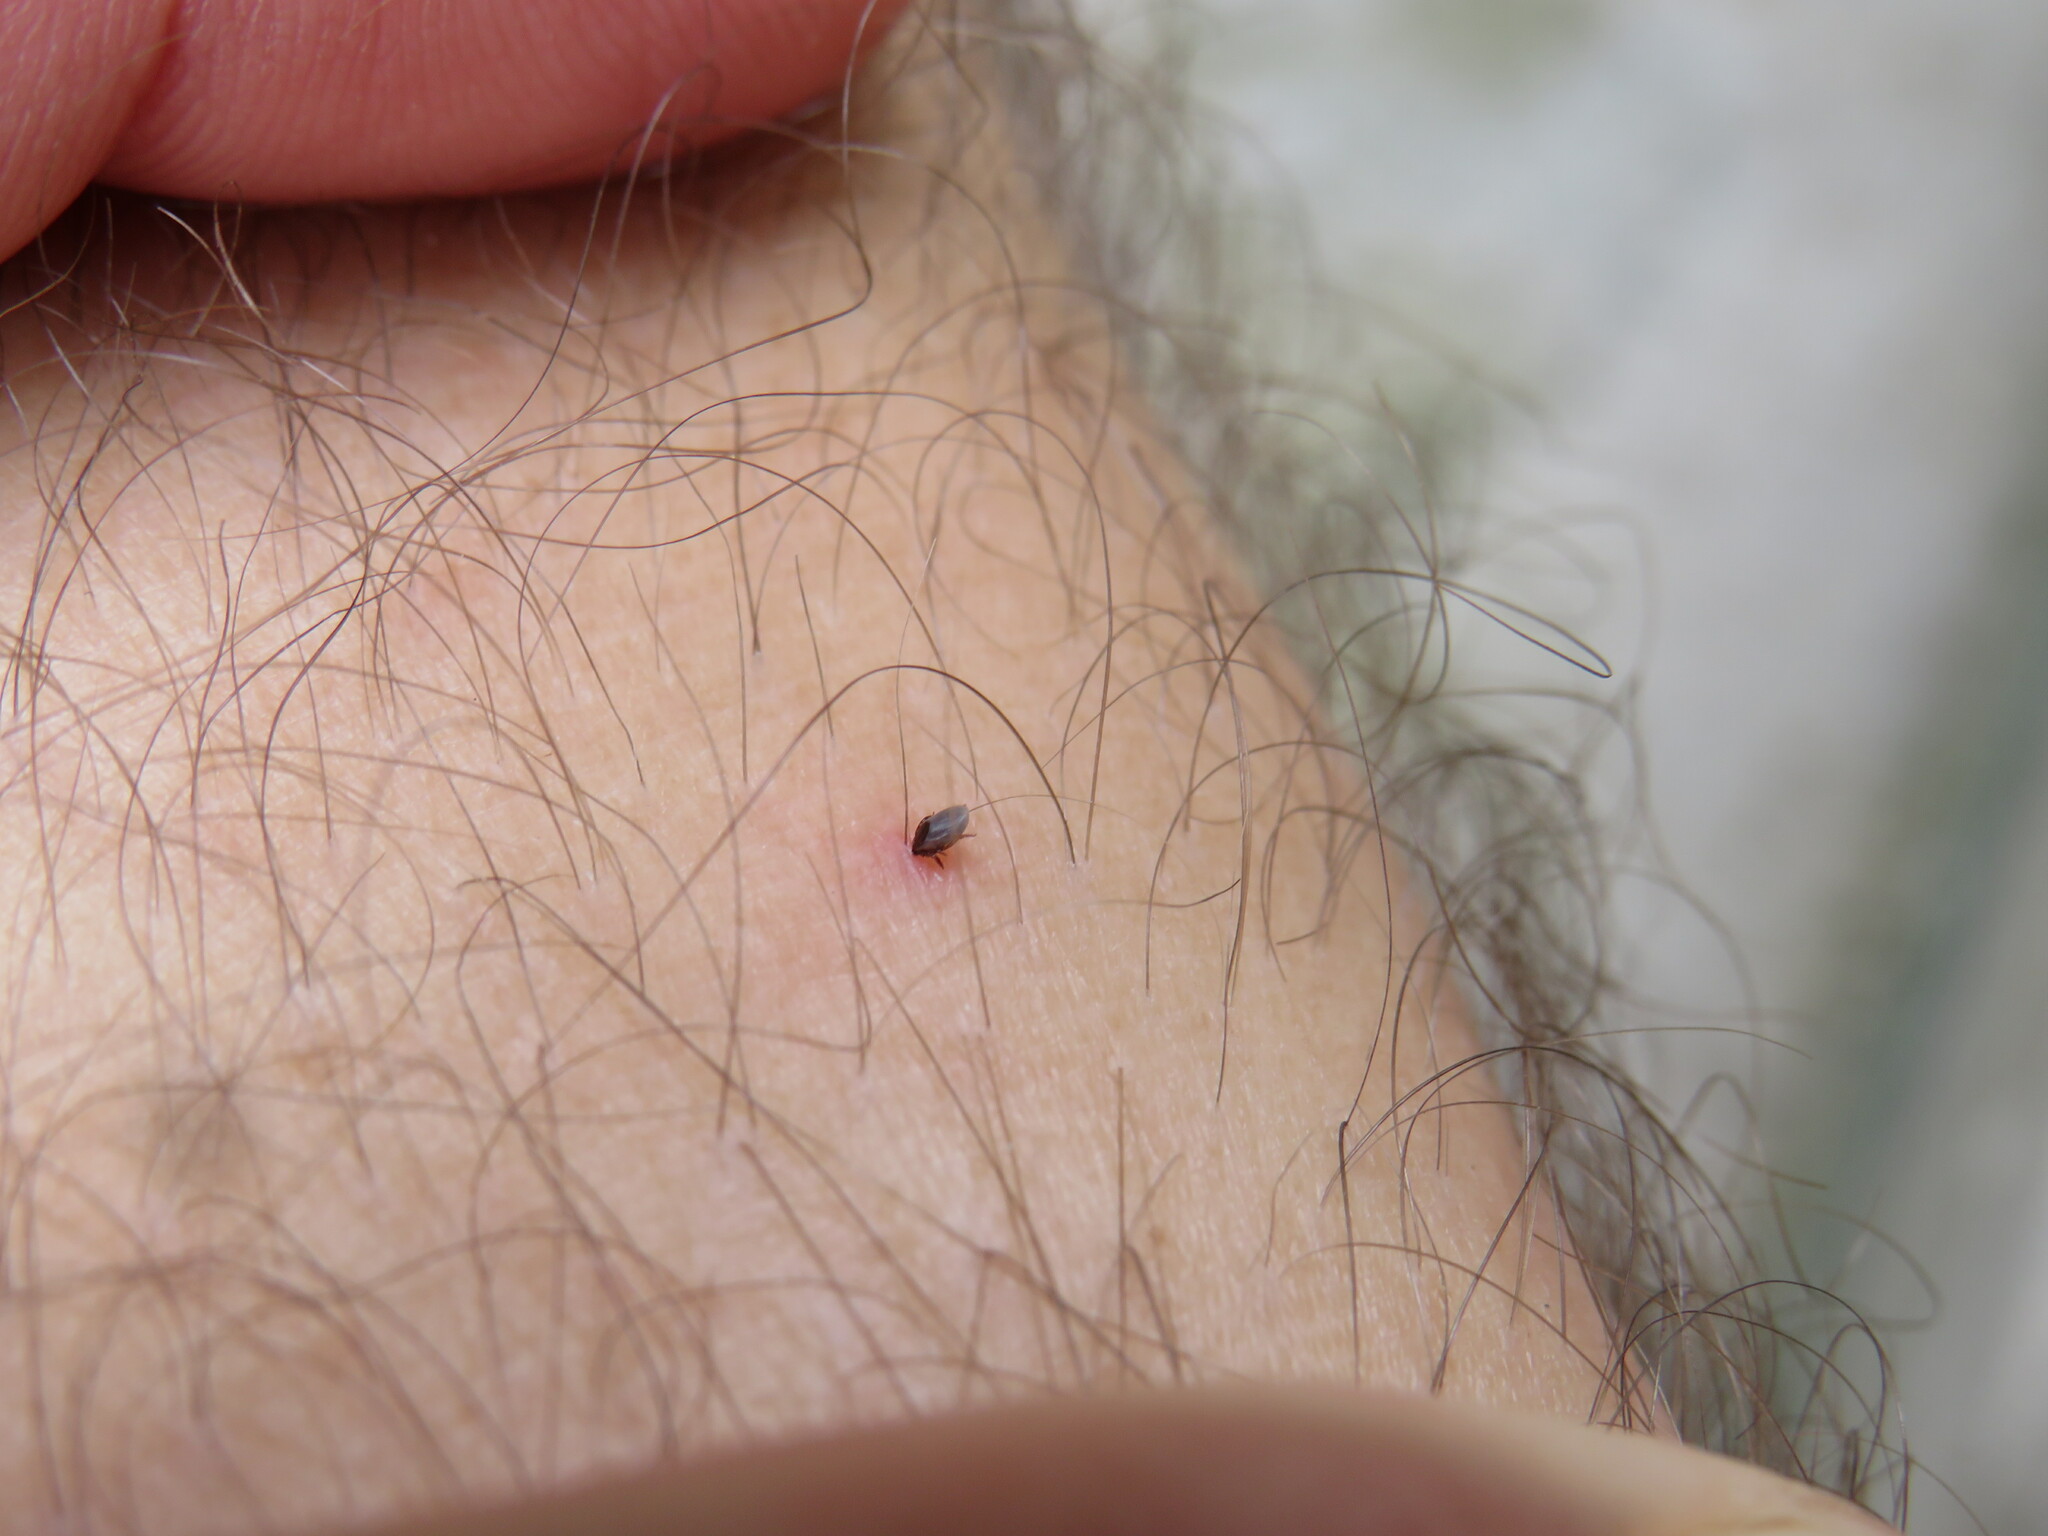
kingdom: Animalia
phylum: Arthropoda
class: Arachnida
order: Ixodida
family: Ixodidae
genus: Ixodes
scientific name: Ixodes scapularis
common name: Black legged tick
